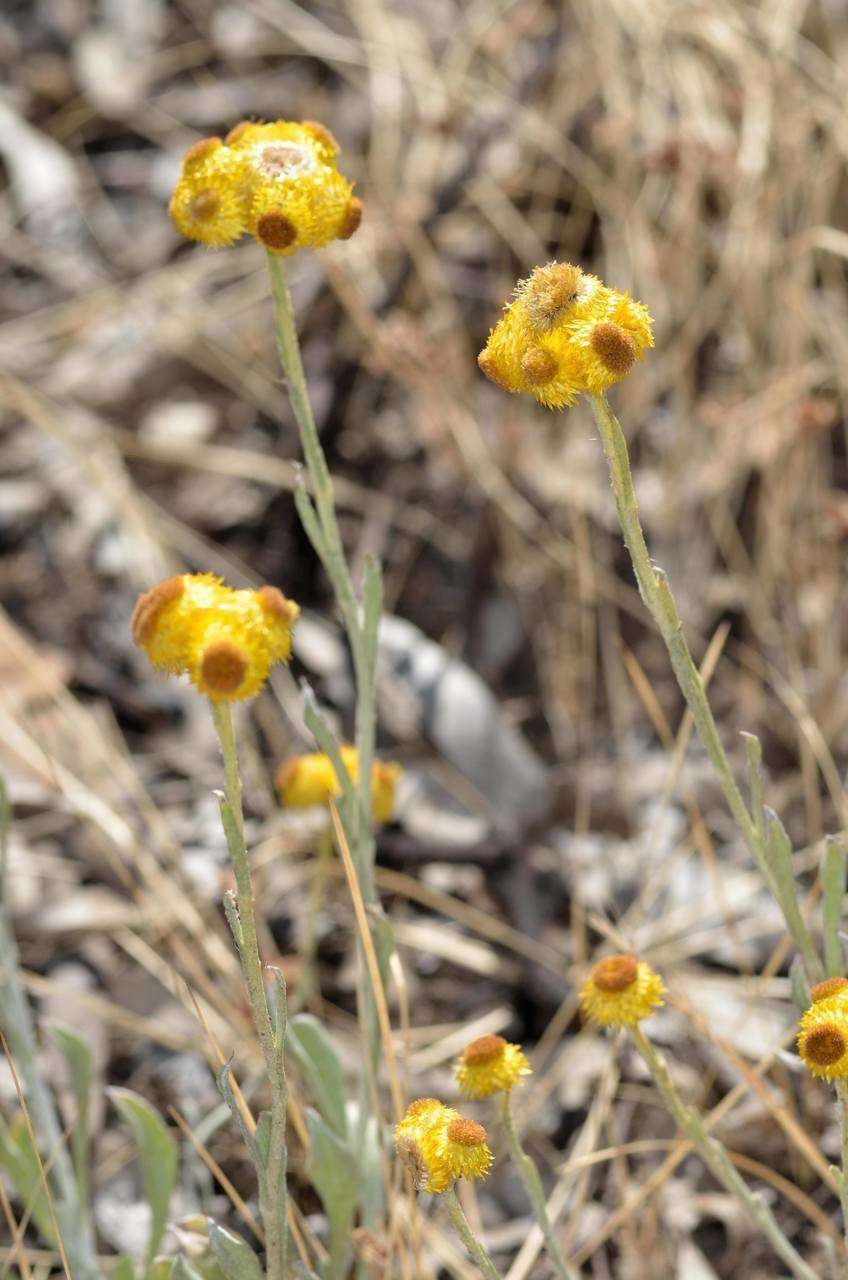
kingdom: Plantae
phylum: Tracheophyta
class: Magnoliopsida
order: Asterales
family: Asteraceae
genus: Chrysocephalum
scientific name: Chrysocephalum apiculatum
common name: Common everlasting
